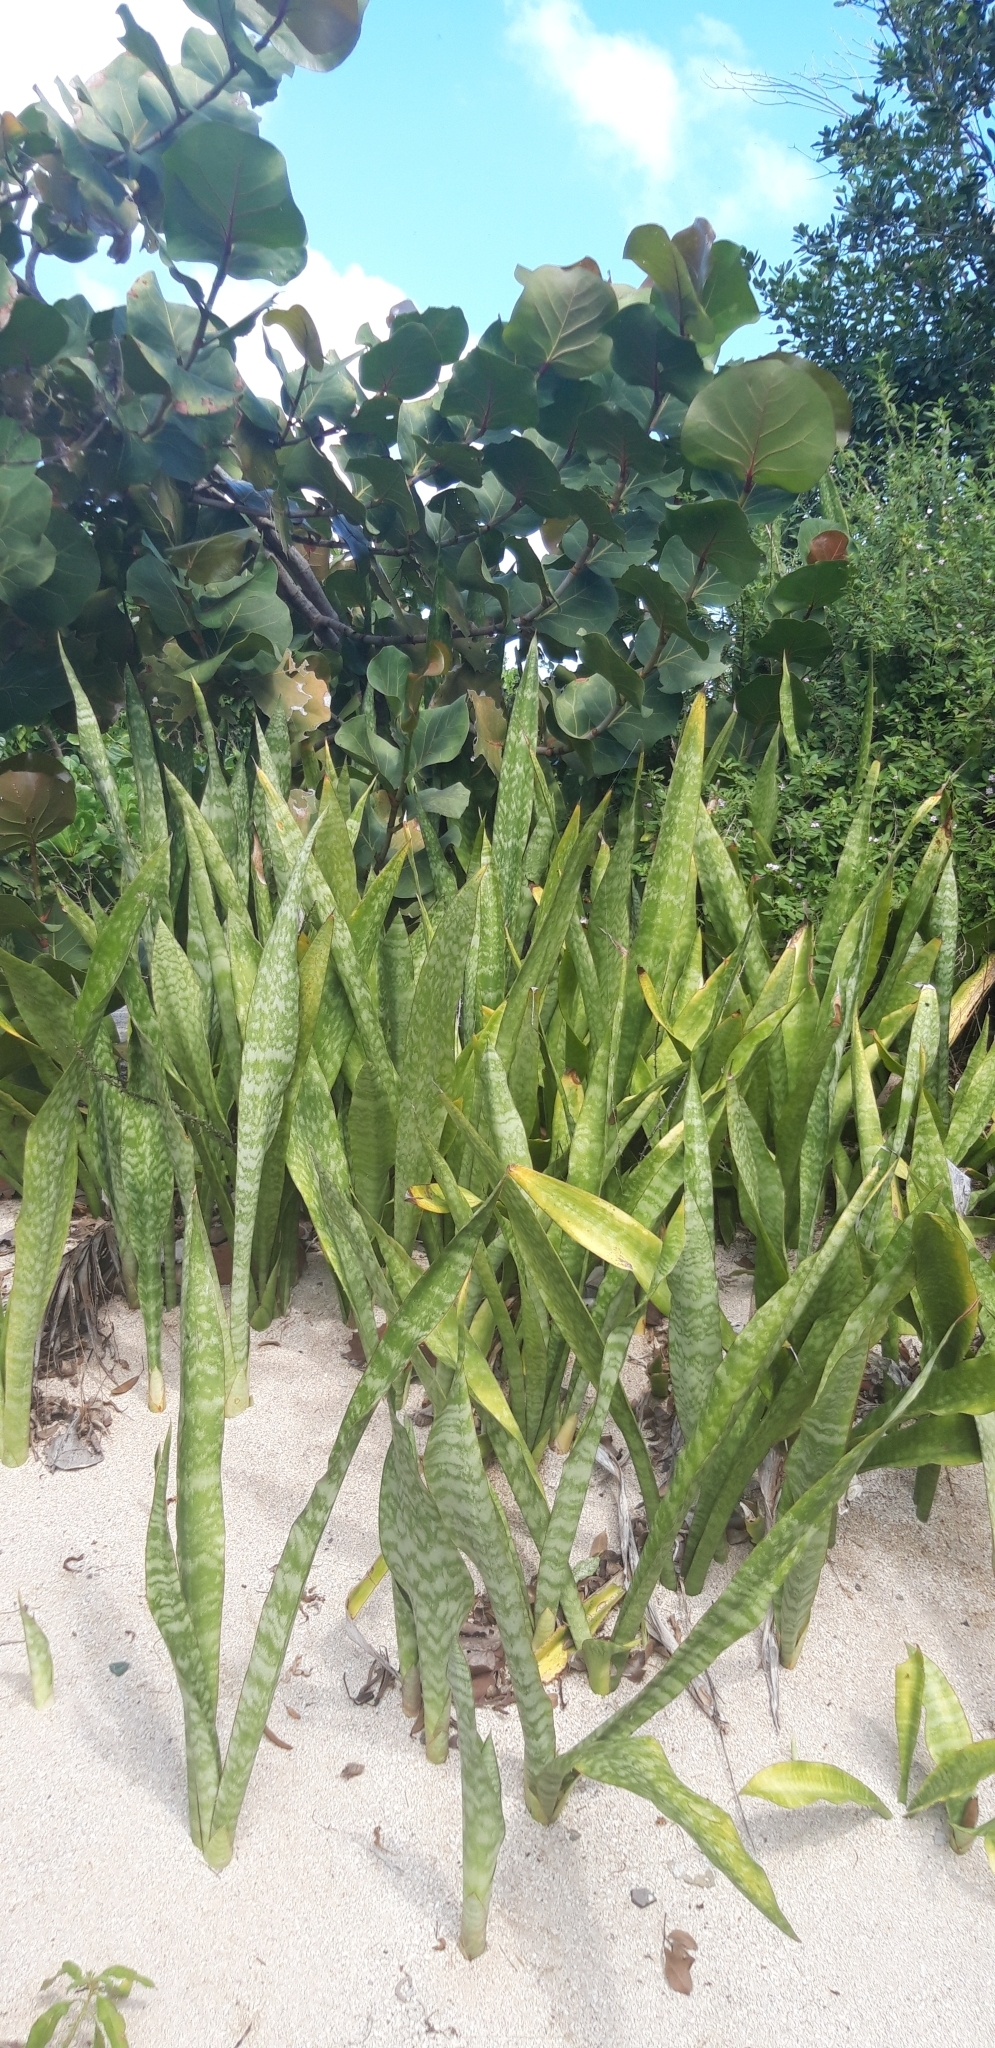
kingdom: Plantae
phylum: Tracheophyta
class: Liliopsida
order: Asparagales
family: Asparagaceae
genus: Dracaena
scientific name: Dracaena hyacinthoides
